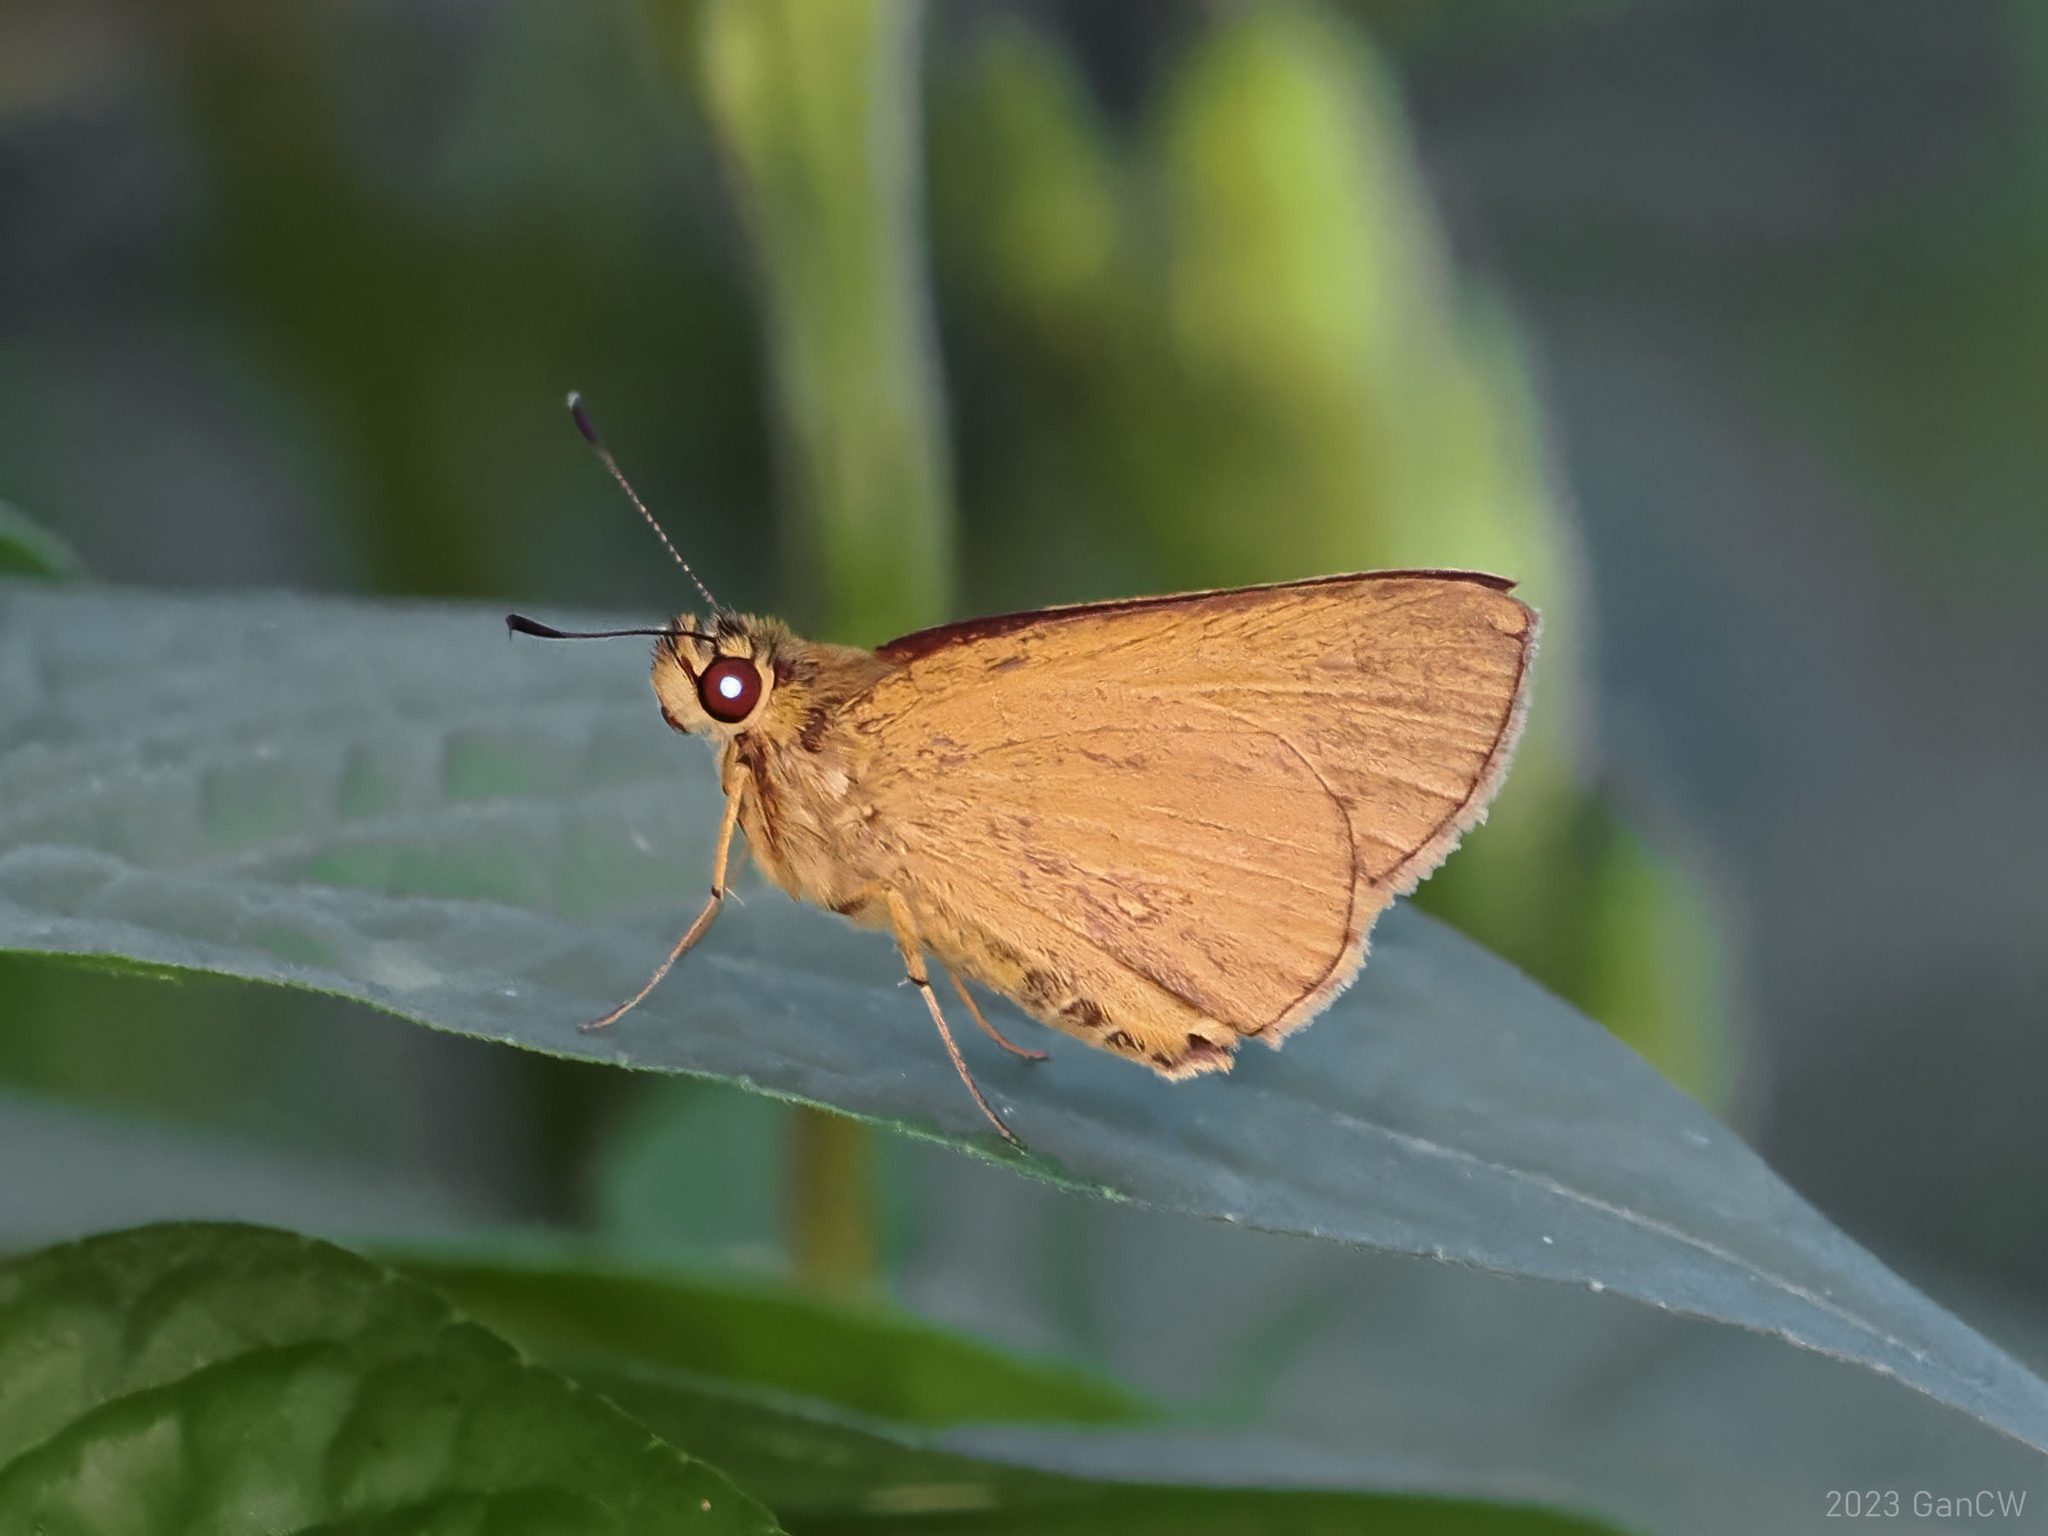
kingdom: Animalia
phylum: Arthropoda
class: Insecta
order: Lepidoptera
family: Hesperiidae
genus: Xanthoneura
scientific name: Xanthoneura telesinus
